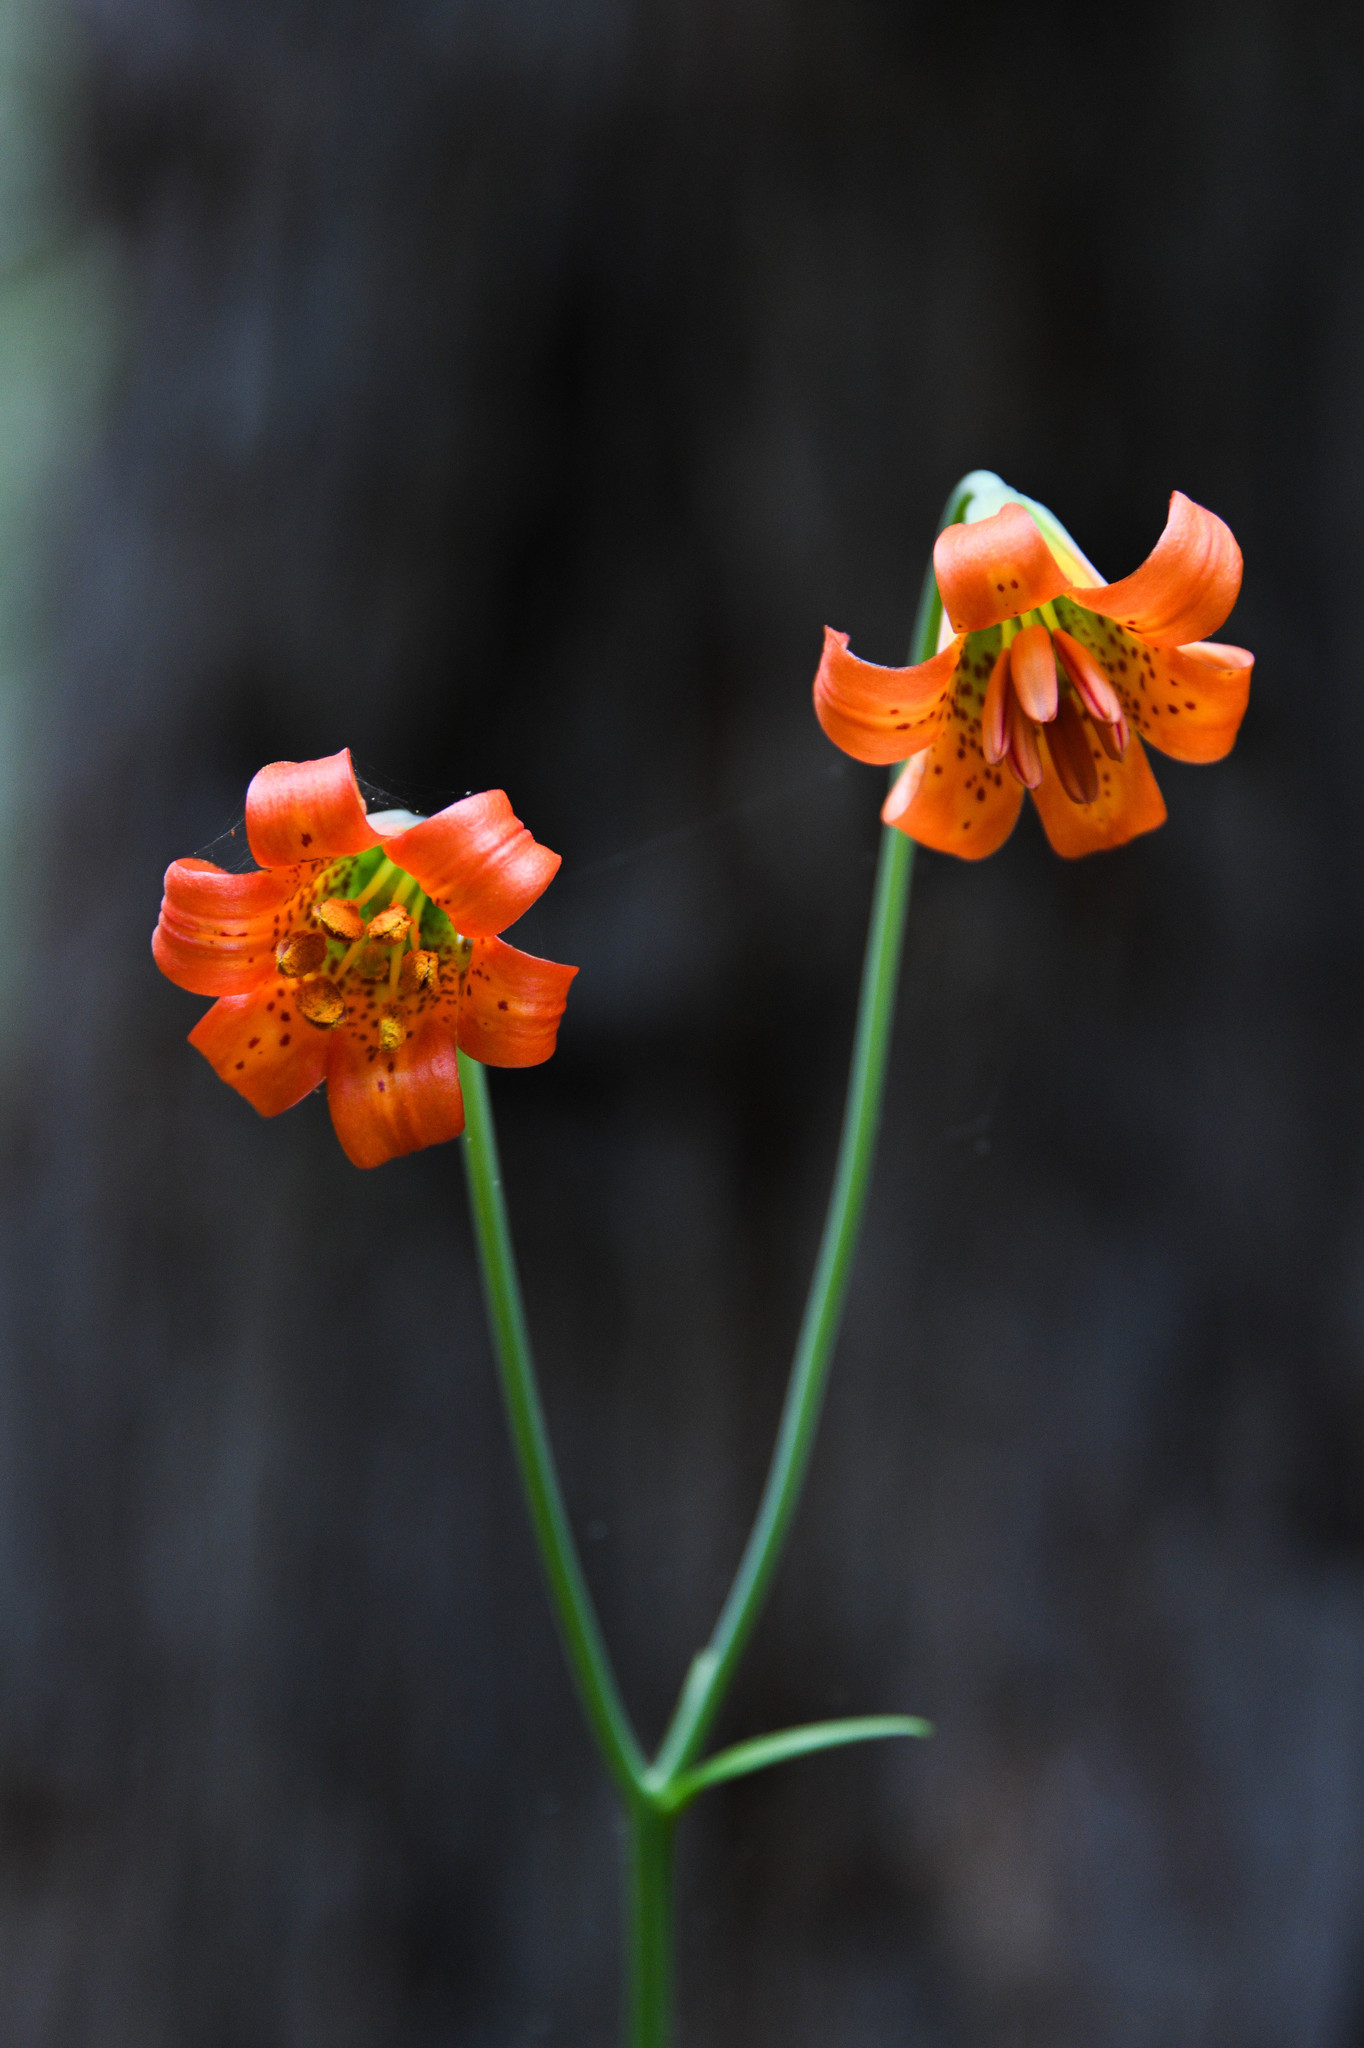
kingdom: Plantae
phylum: Tracheophyta
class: Liliopsida
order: Liliales
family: Liliaceae
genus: Lilium
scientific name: Lilium maritimum
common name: Coastal lily
